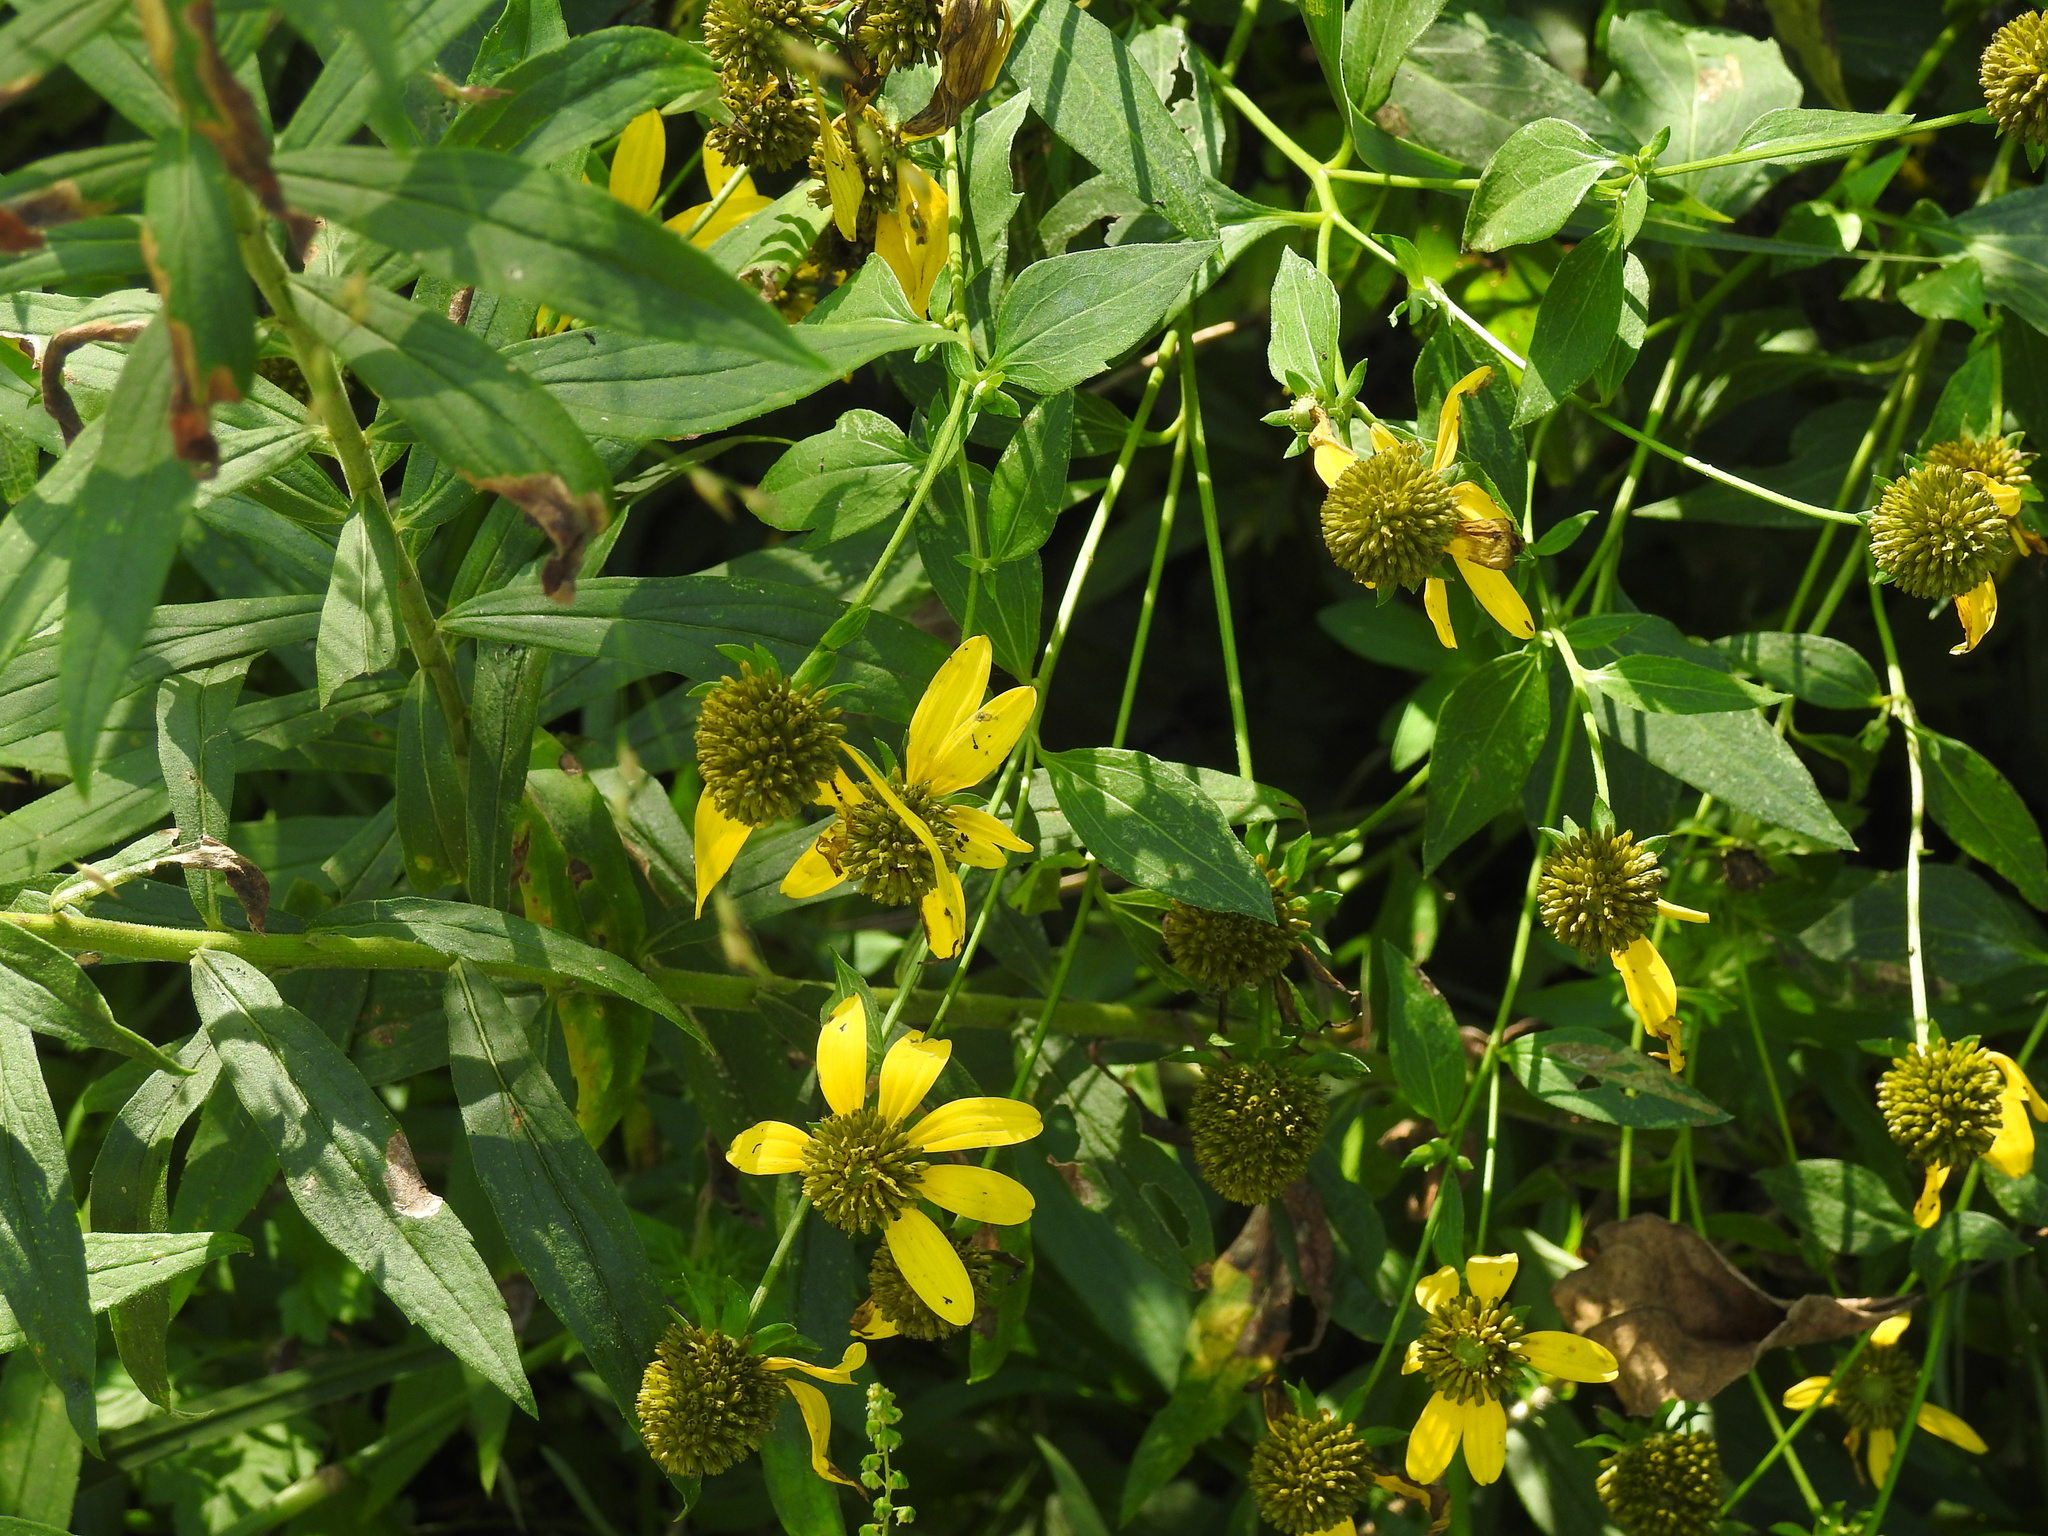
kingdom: Plantae
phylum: Tracheophyta
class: Magnoliopsida
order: Asterales
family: Asteraceae
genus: Rudbeckia
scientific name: Rudbeckia laciniata
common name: Coneflower
